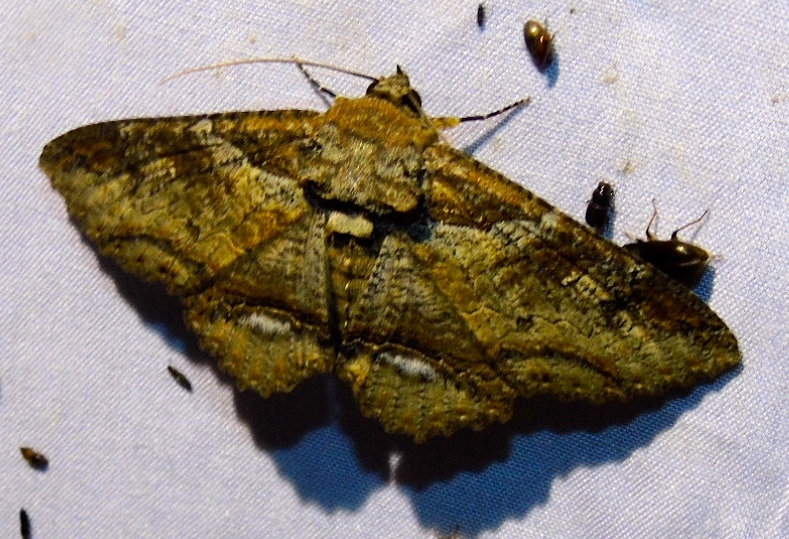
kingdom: Animalia
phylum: Arthropoda
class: Insecta
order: Lepidoptera
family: Erebidae
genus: Zale
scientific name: Zale viridans
